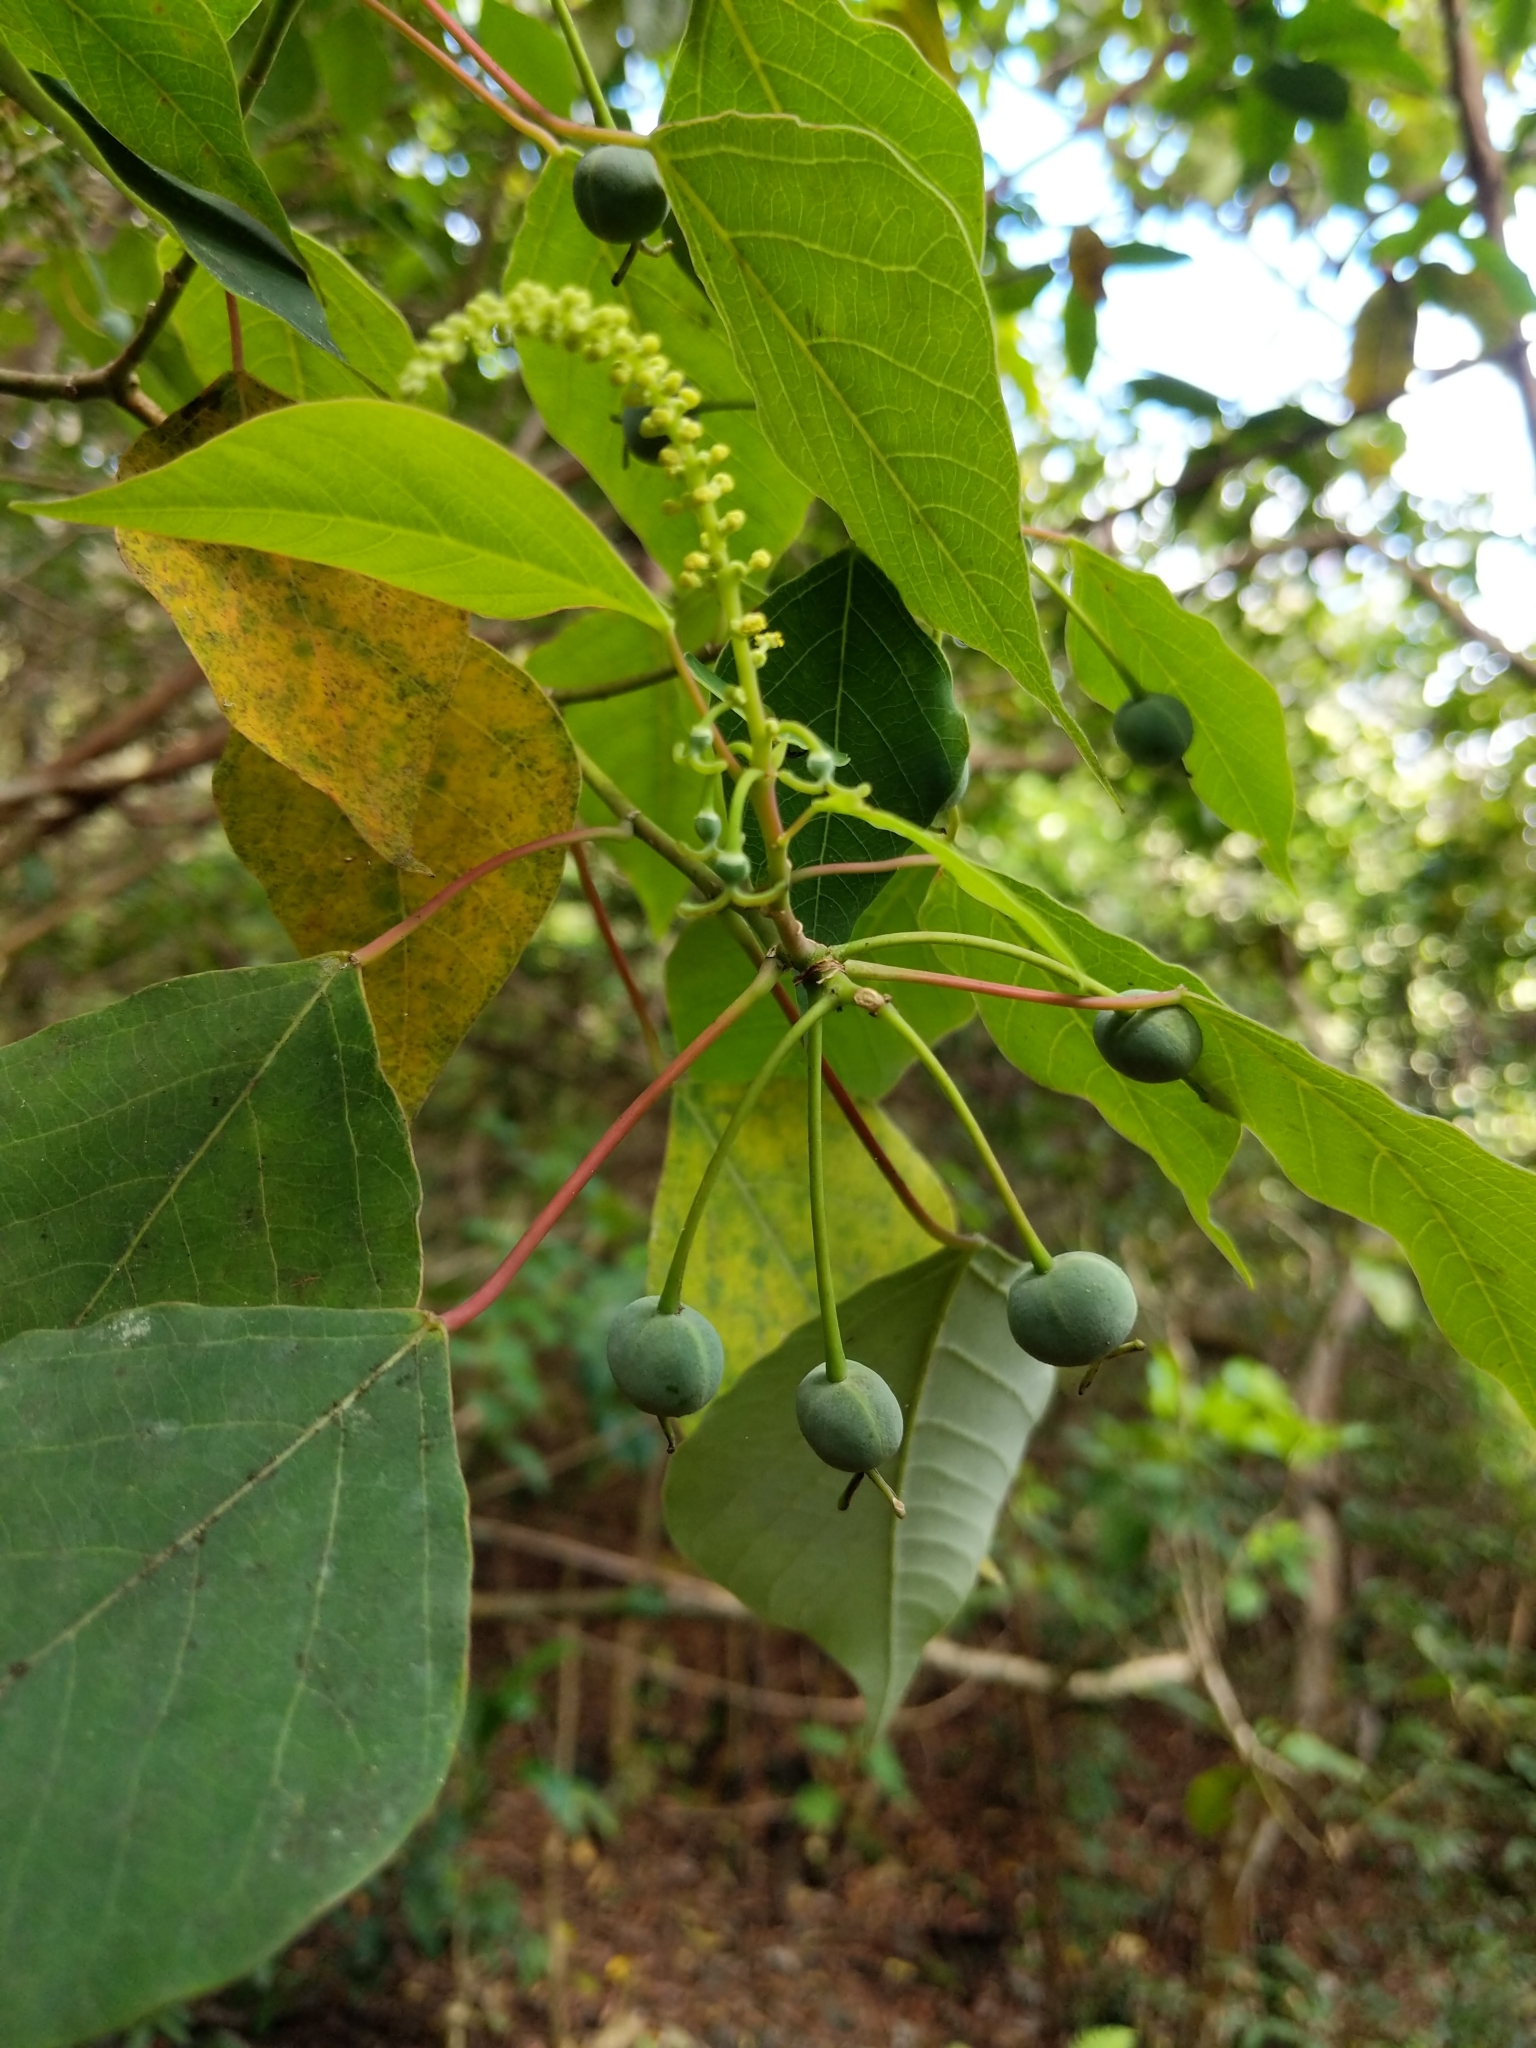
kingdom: Plantae
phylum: Tracheophyta
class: Magnoliopsida
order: Malpighiales
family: Euphorbiaceae
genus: Homalanthus
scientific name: Homalanthus populifolius
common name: Queensland poplar
